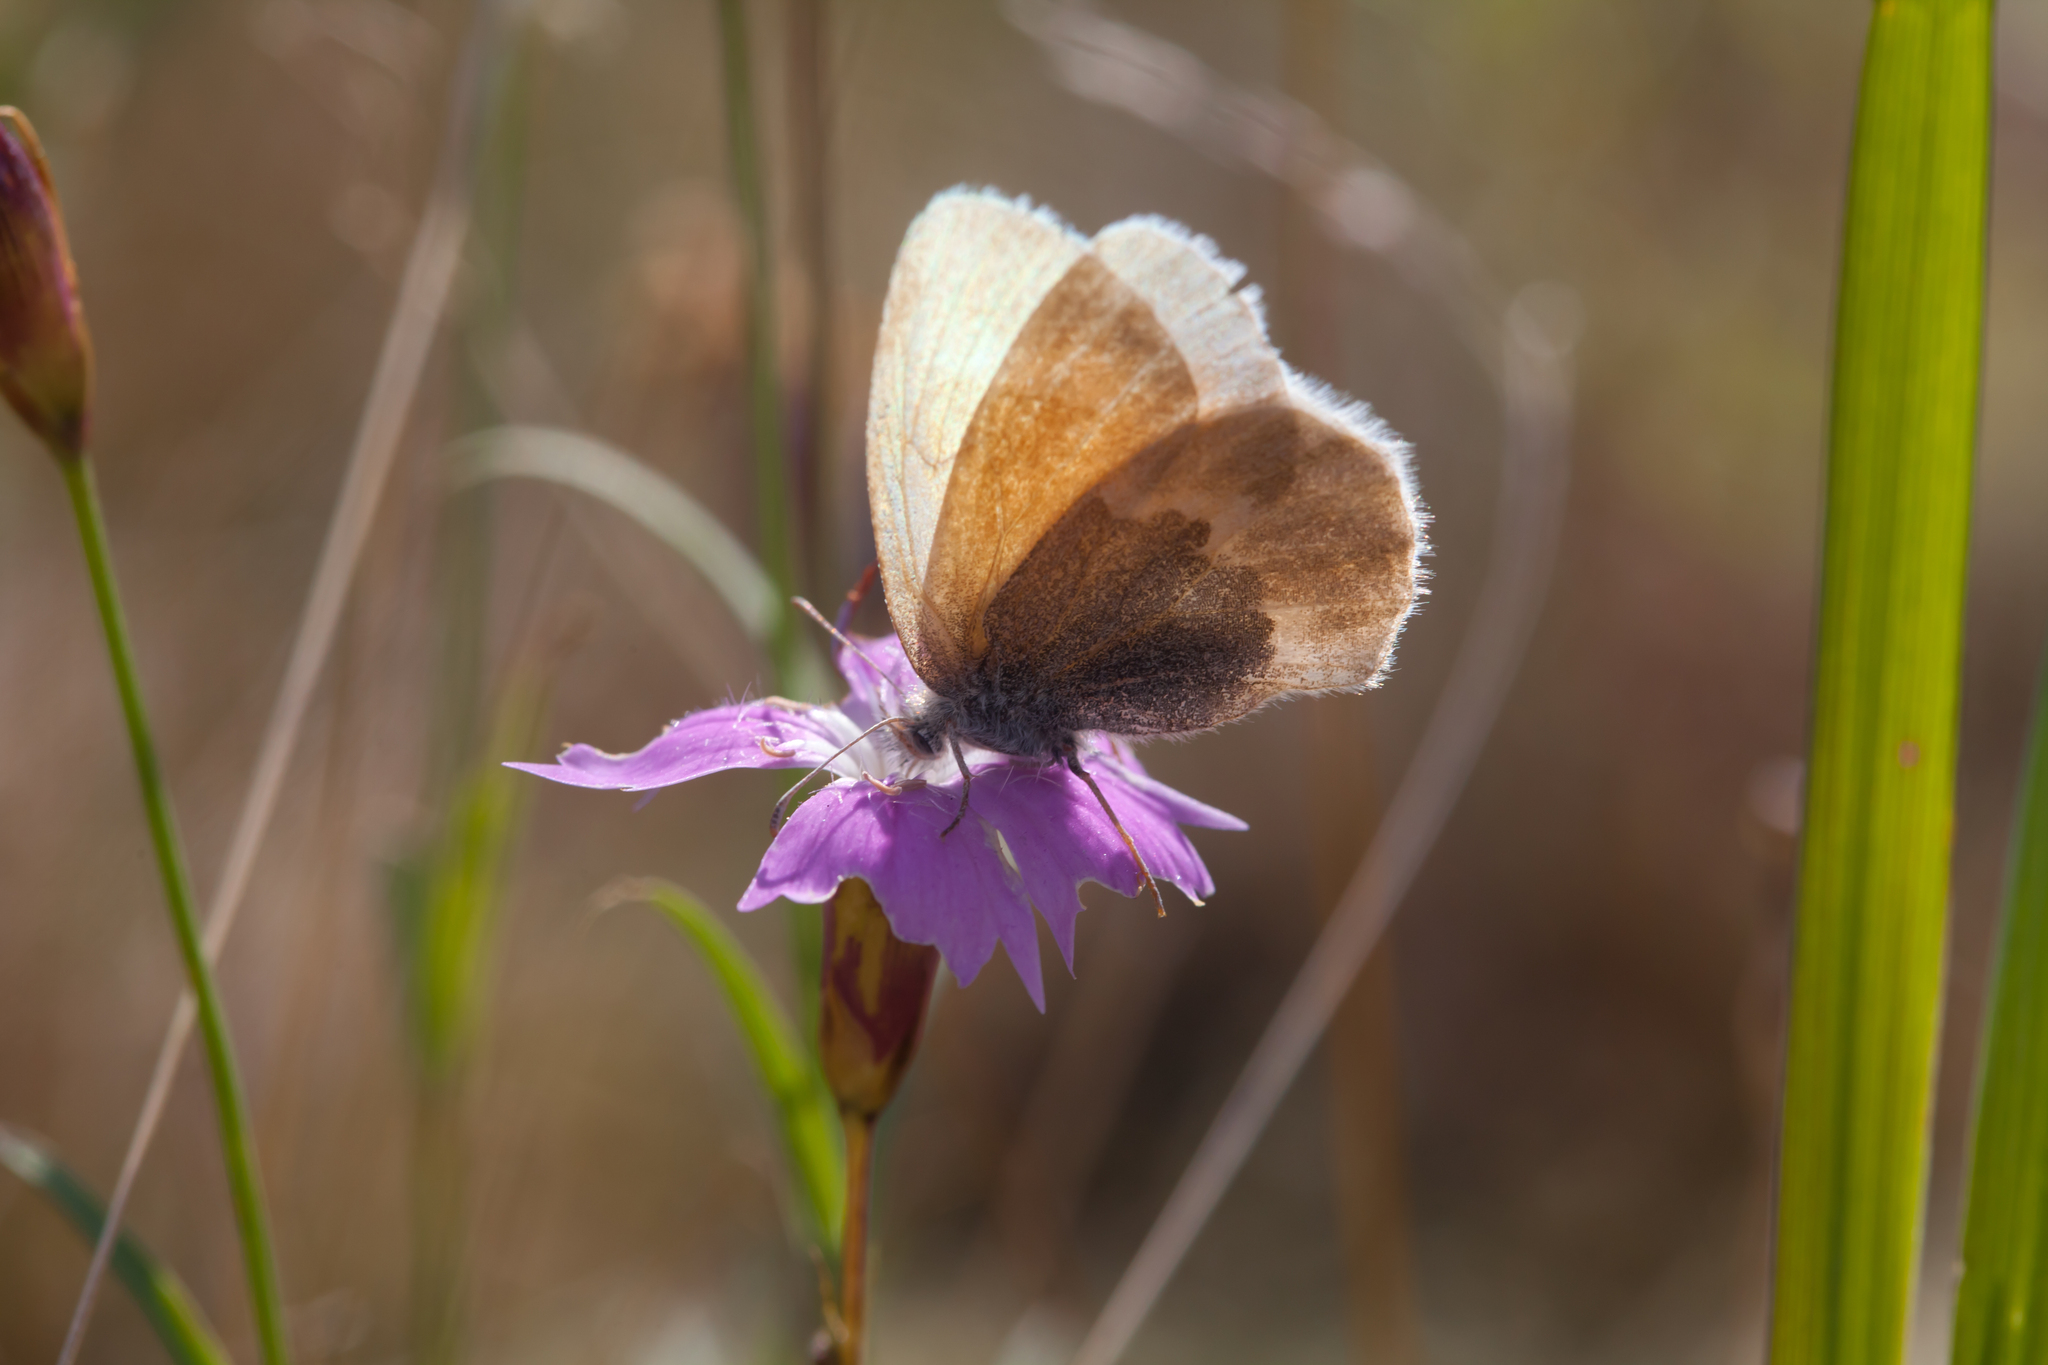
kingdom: Animalia
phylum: Arthropoda
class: Insecta
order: Lepidoptera
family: Nymphalidae
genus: Coenonympha
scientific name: Coenonympha tullia
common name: Large heath
